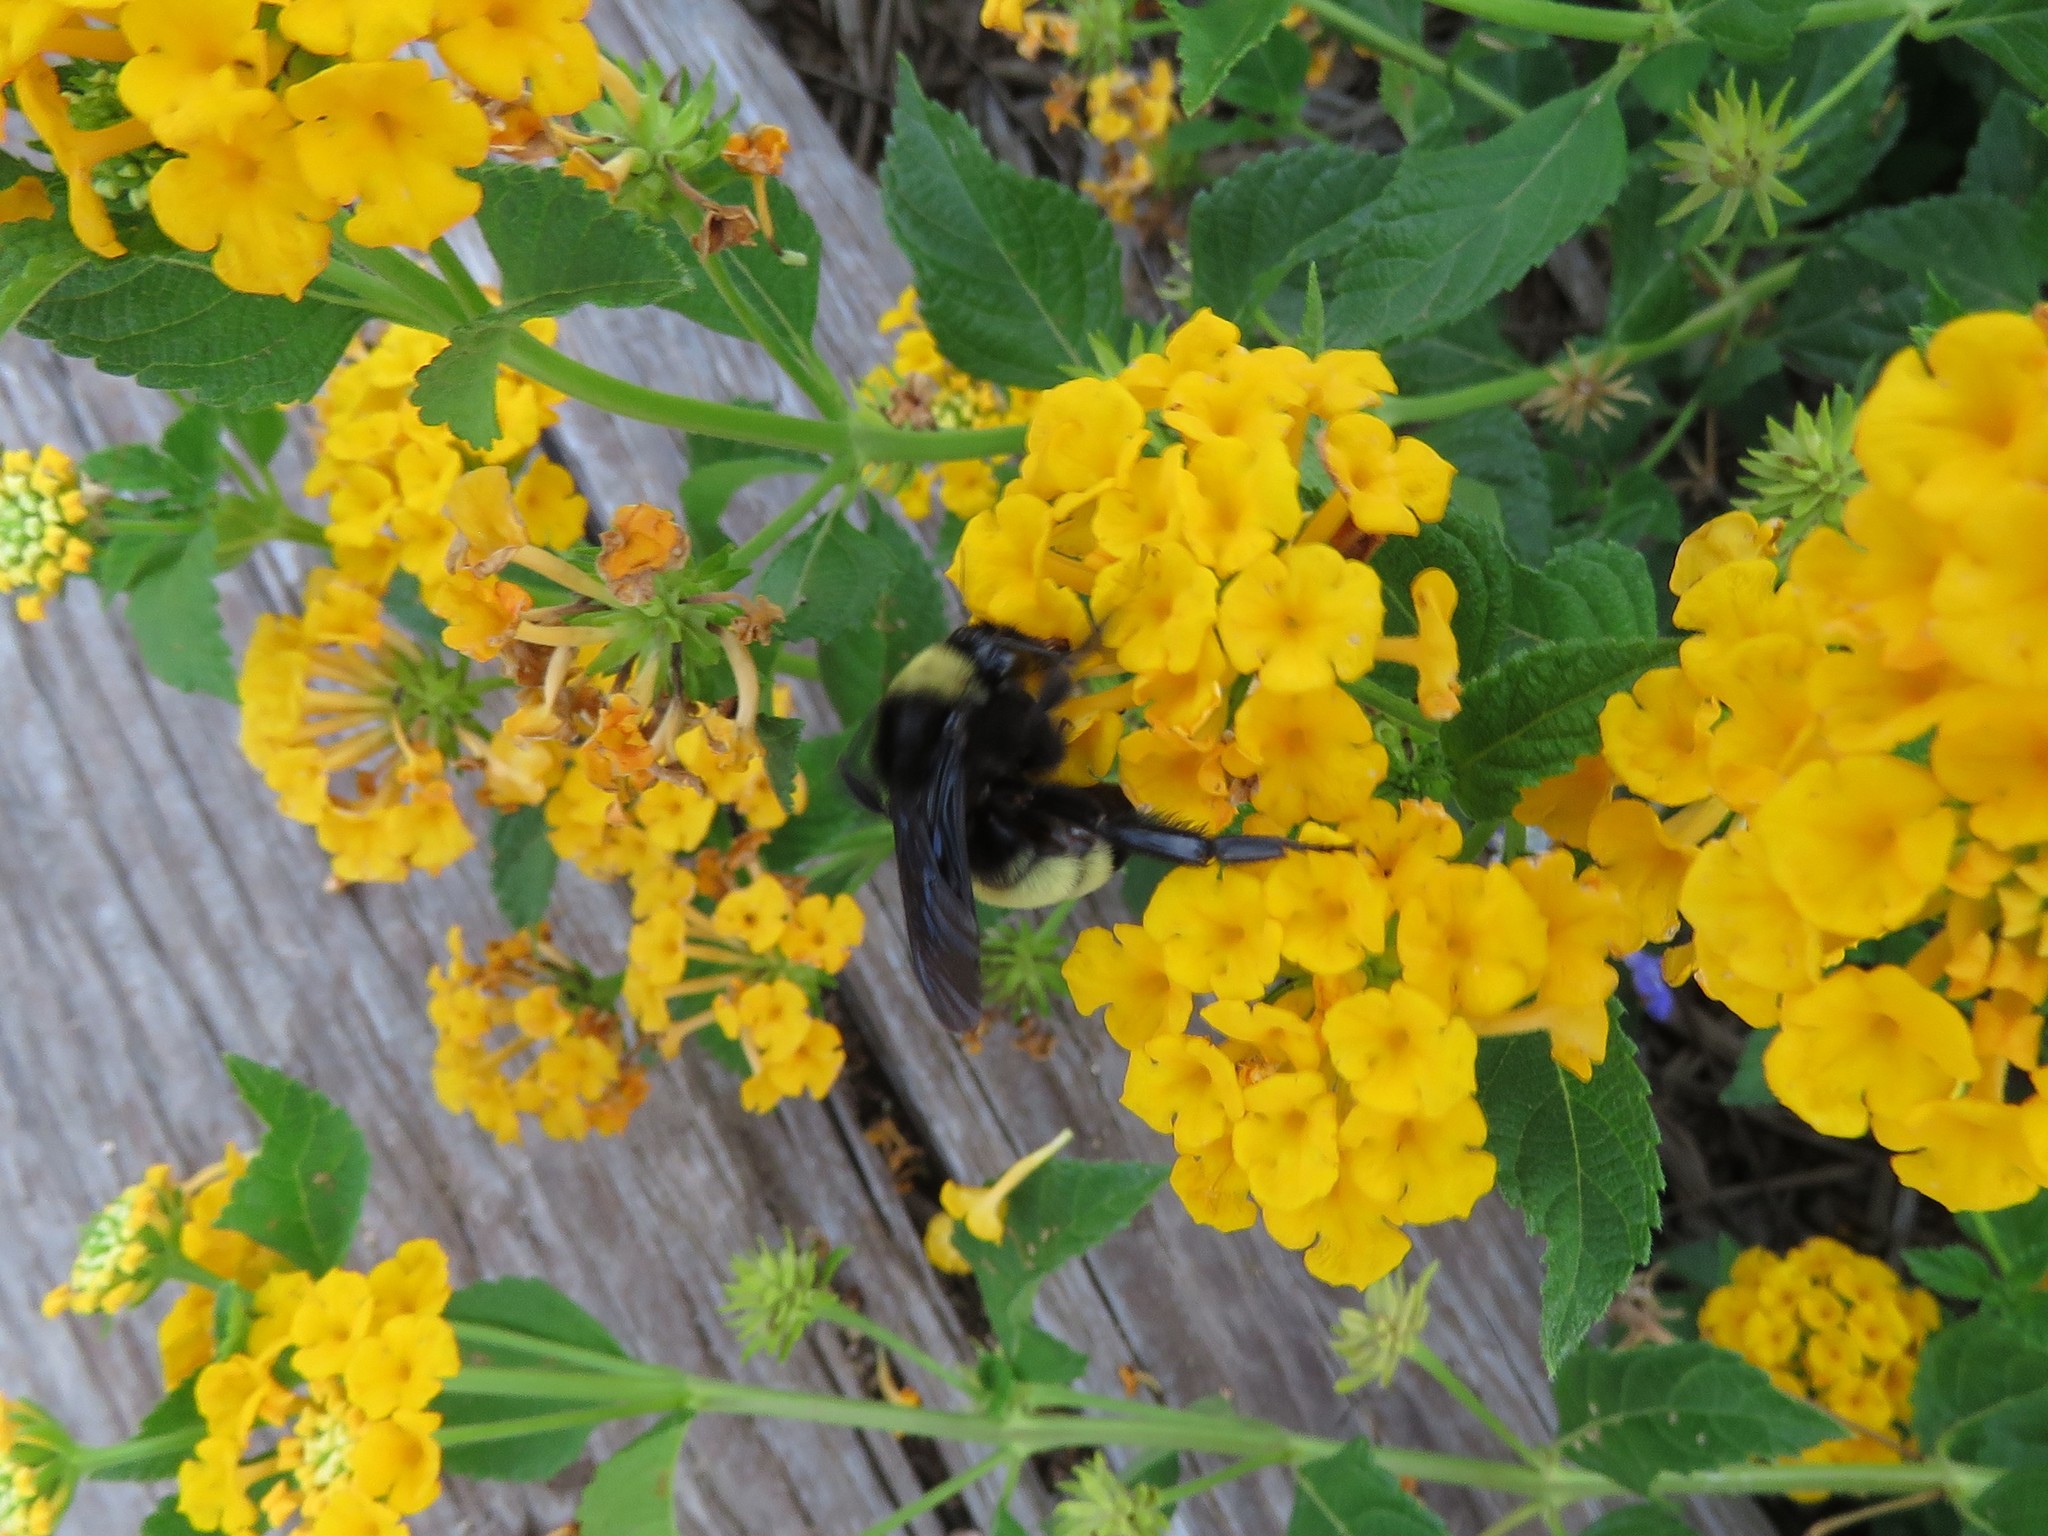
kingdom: Animalia
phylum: Arthropoda
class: Insecta
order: Hymenoptera
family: Apidae
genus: Bombus
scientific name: Bombus pensylvanicus
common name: Bumble bee
